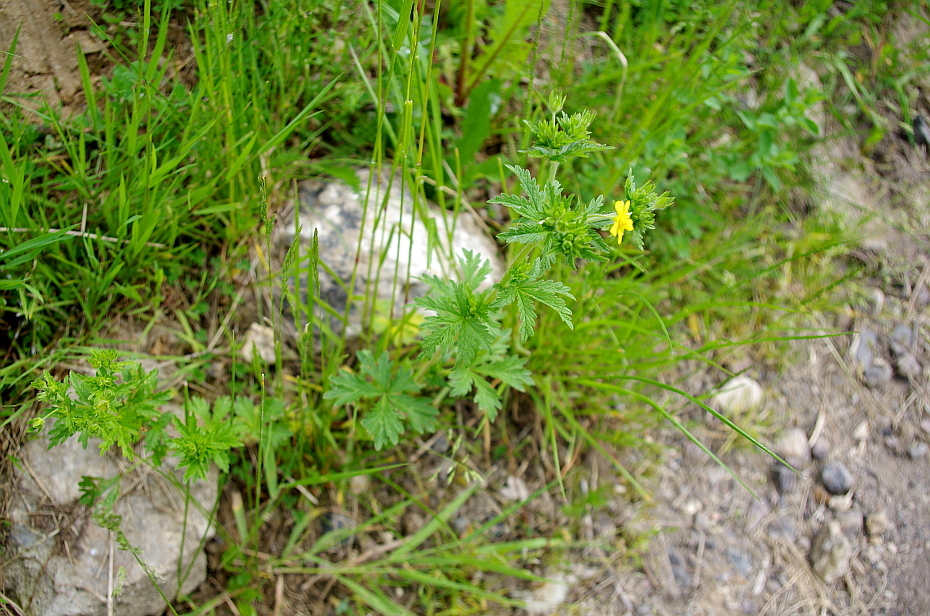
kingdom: Plantae
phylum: Tracheophyta
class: Magnoliopsida
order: Rosales
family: Rosaceae
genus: Potentilla
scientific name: Potentilla intermedia
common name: Downy cinquefoil
